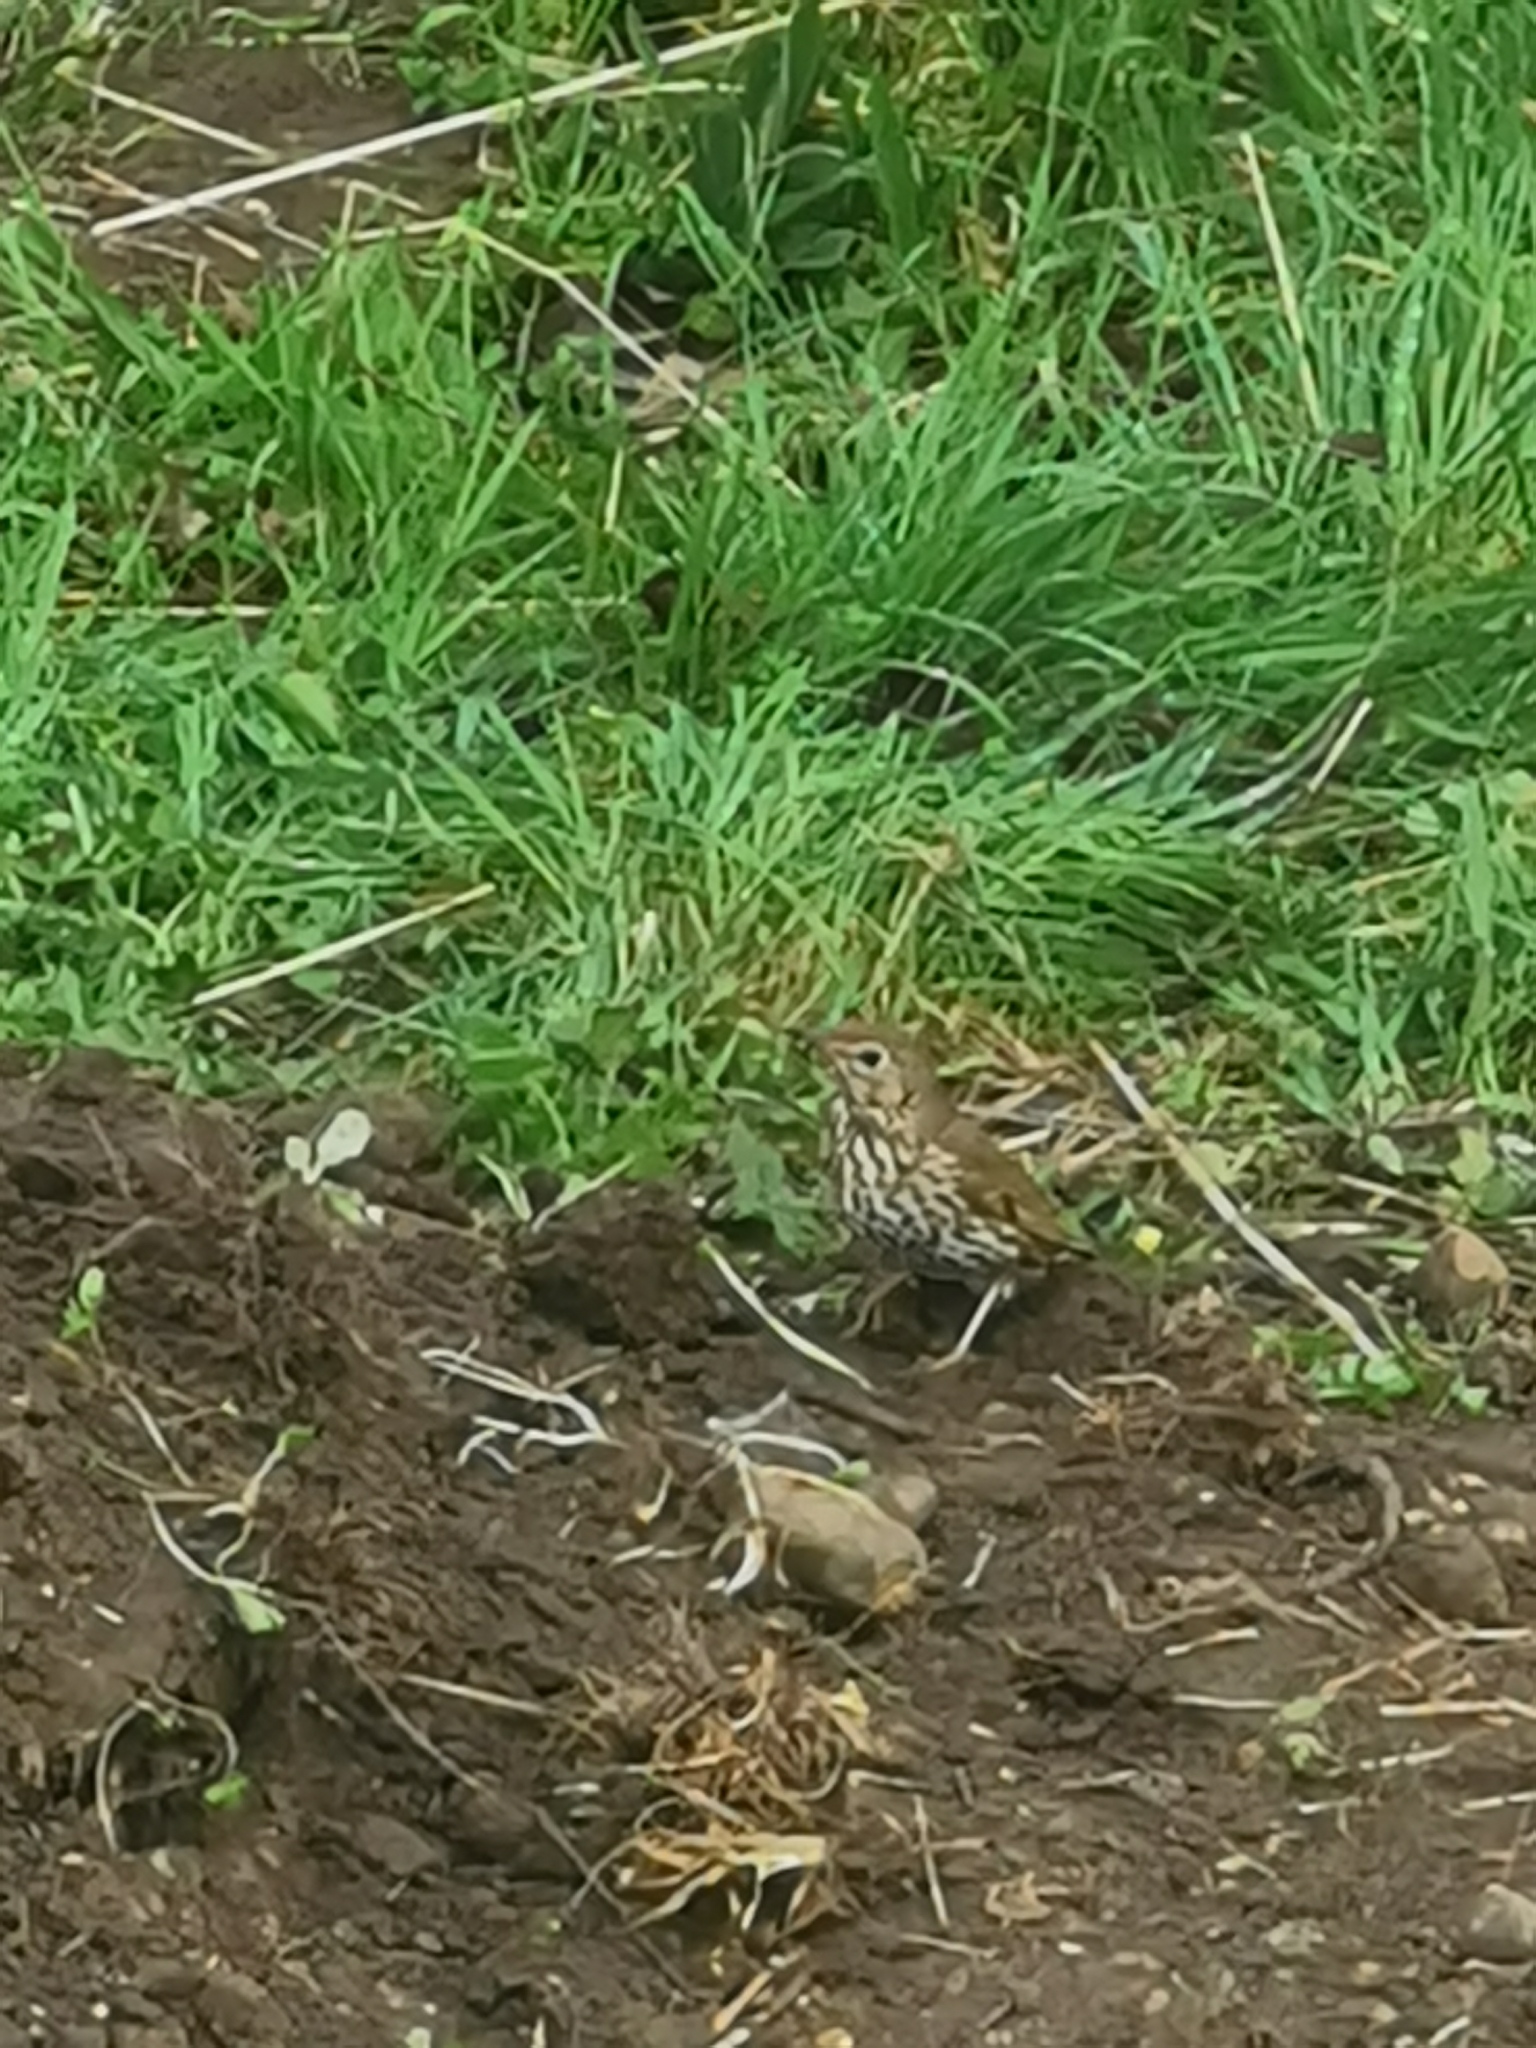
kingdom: Animalia
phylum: Chordata
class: Aves
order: Passeriformes
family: Turdidae
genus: Turdus
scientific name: Turdus philomelos
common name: Song thrush
